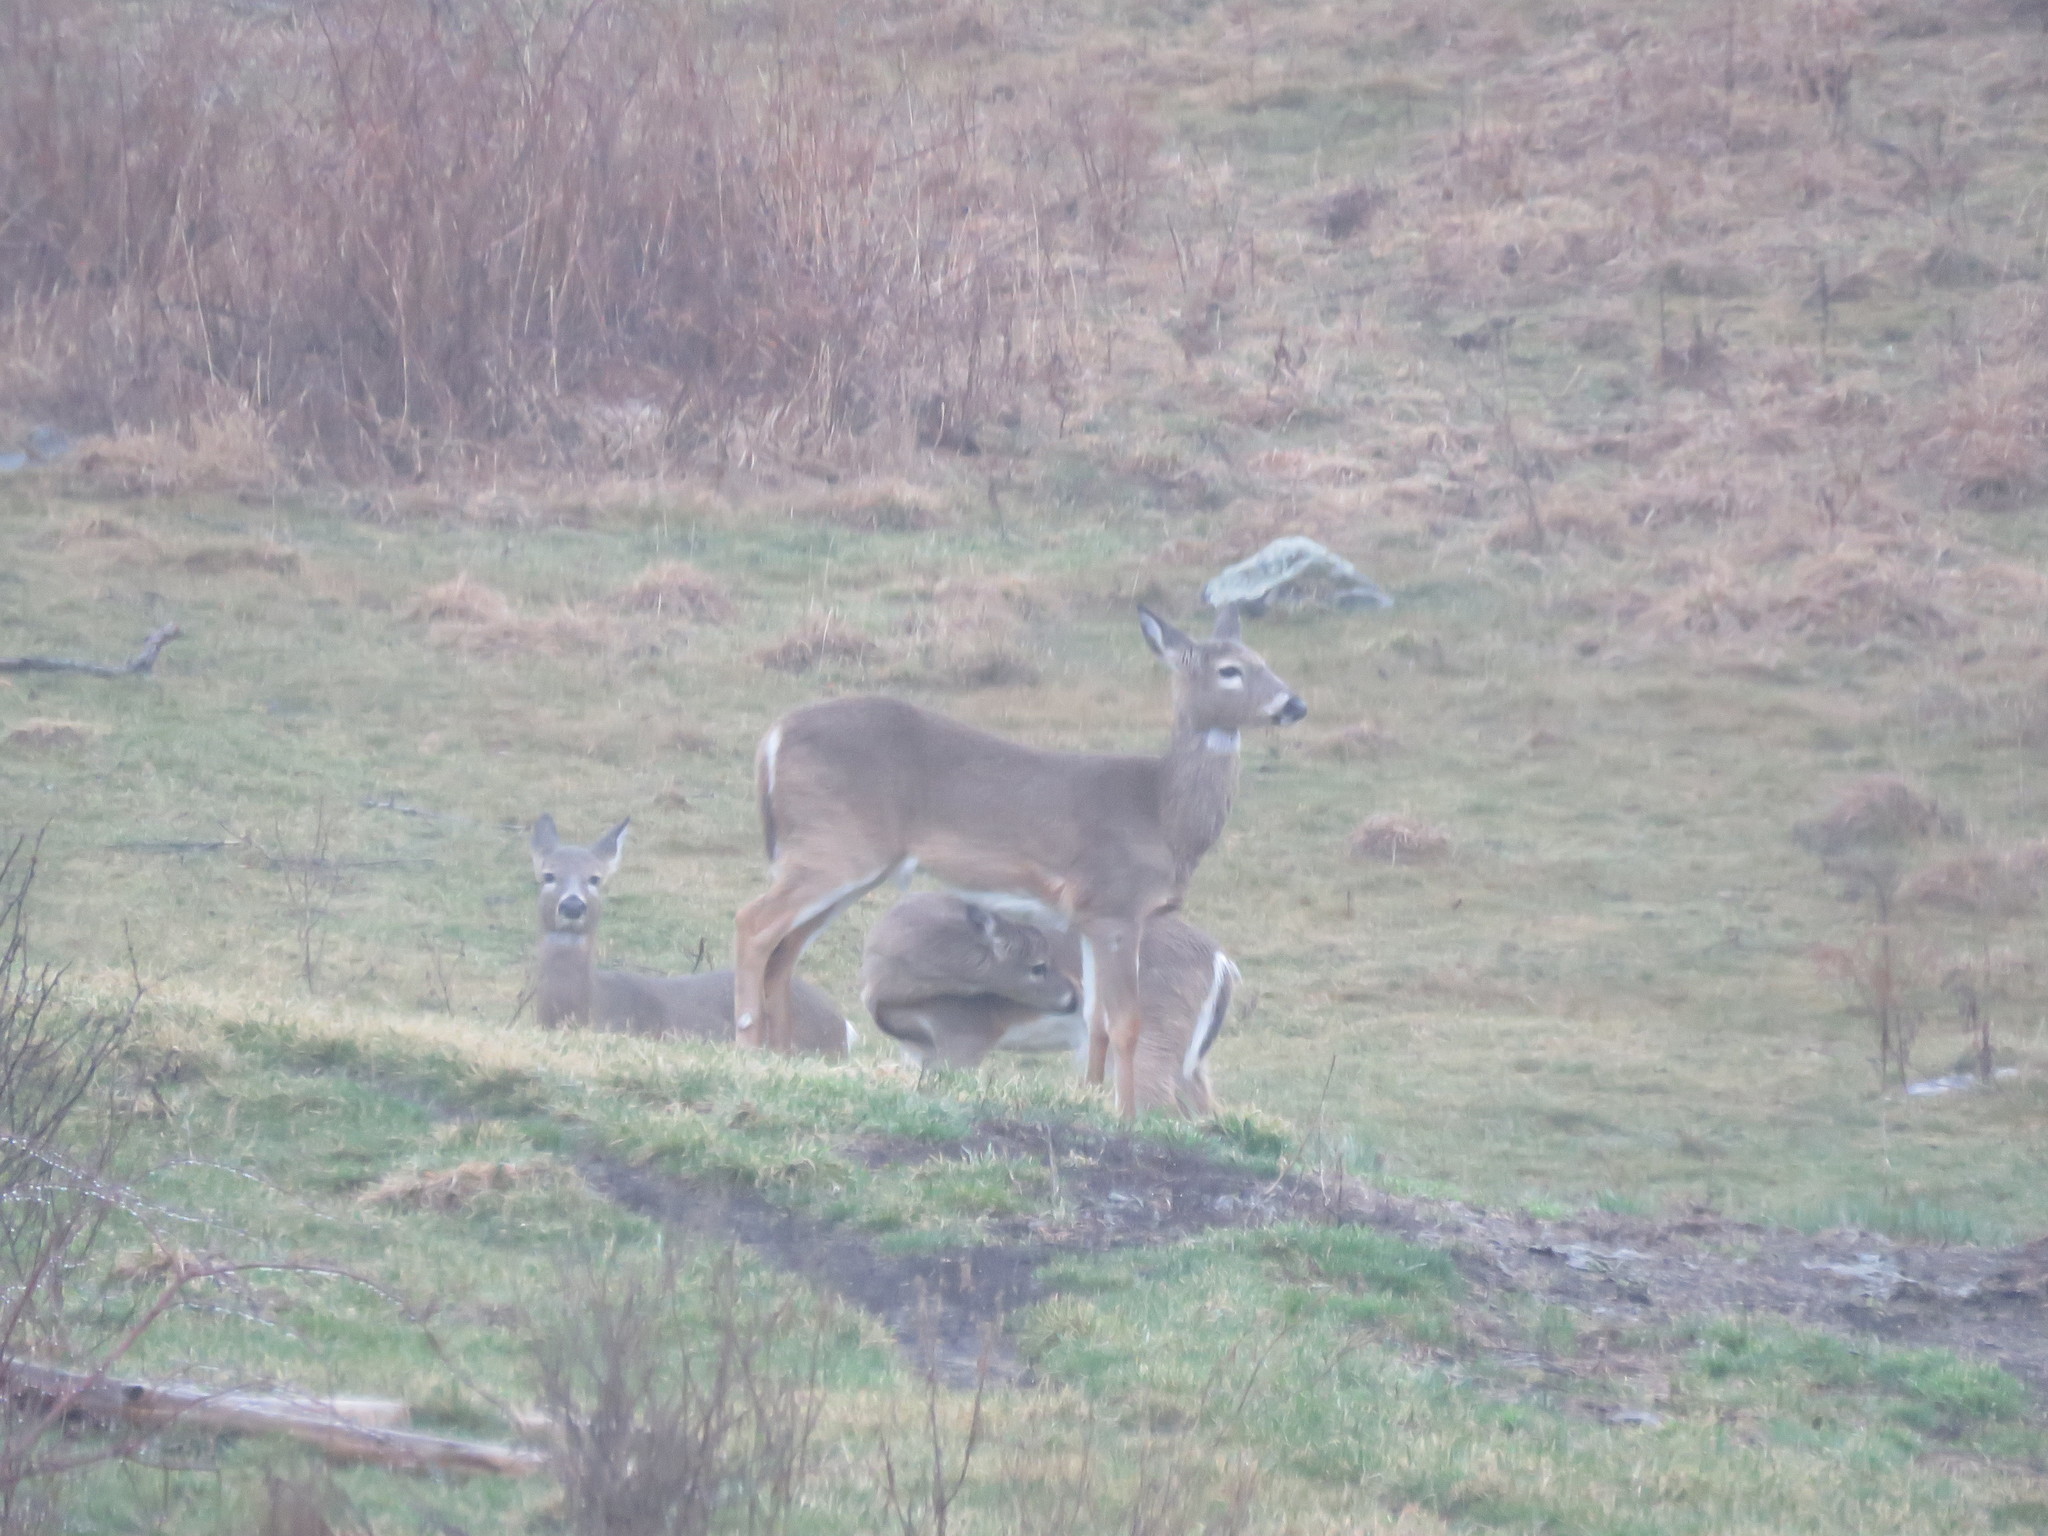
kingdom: Animalia
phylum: Chordata
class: Mammalia
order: Artiodactyla
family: Cervidae
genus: Odocoileus
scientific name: Odocoileus virginianus
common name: White-tailed deer
